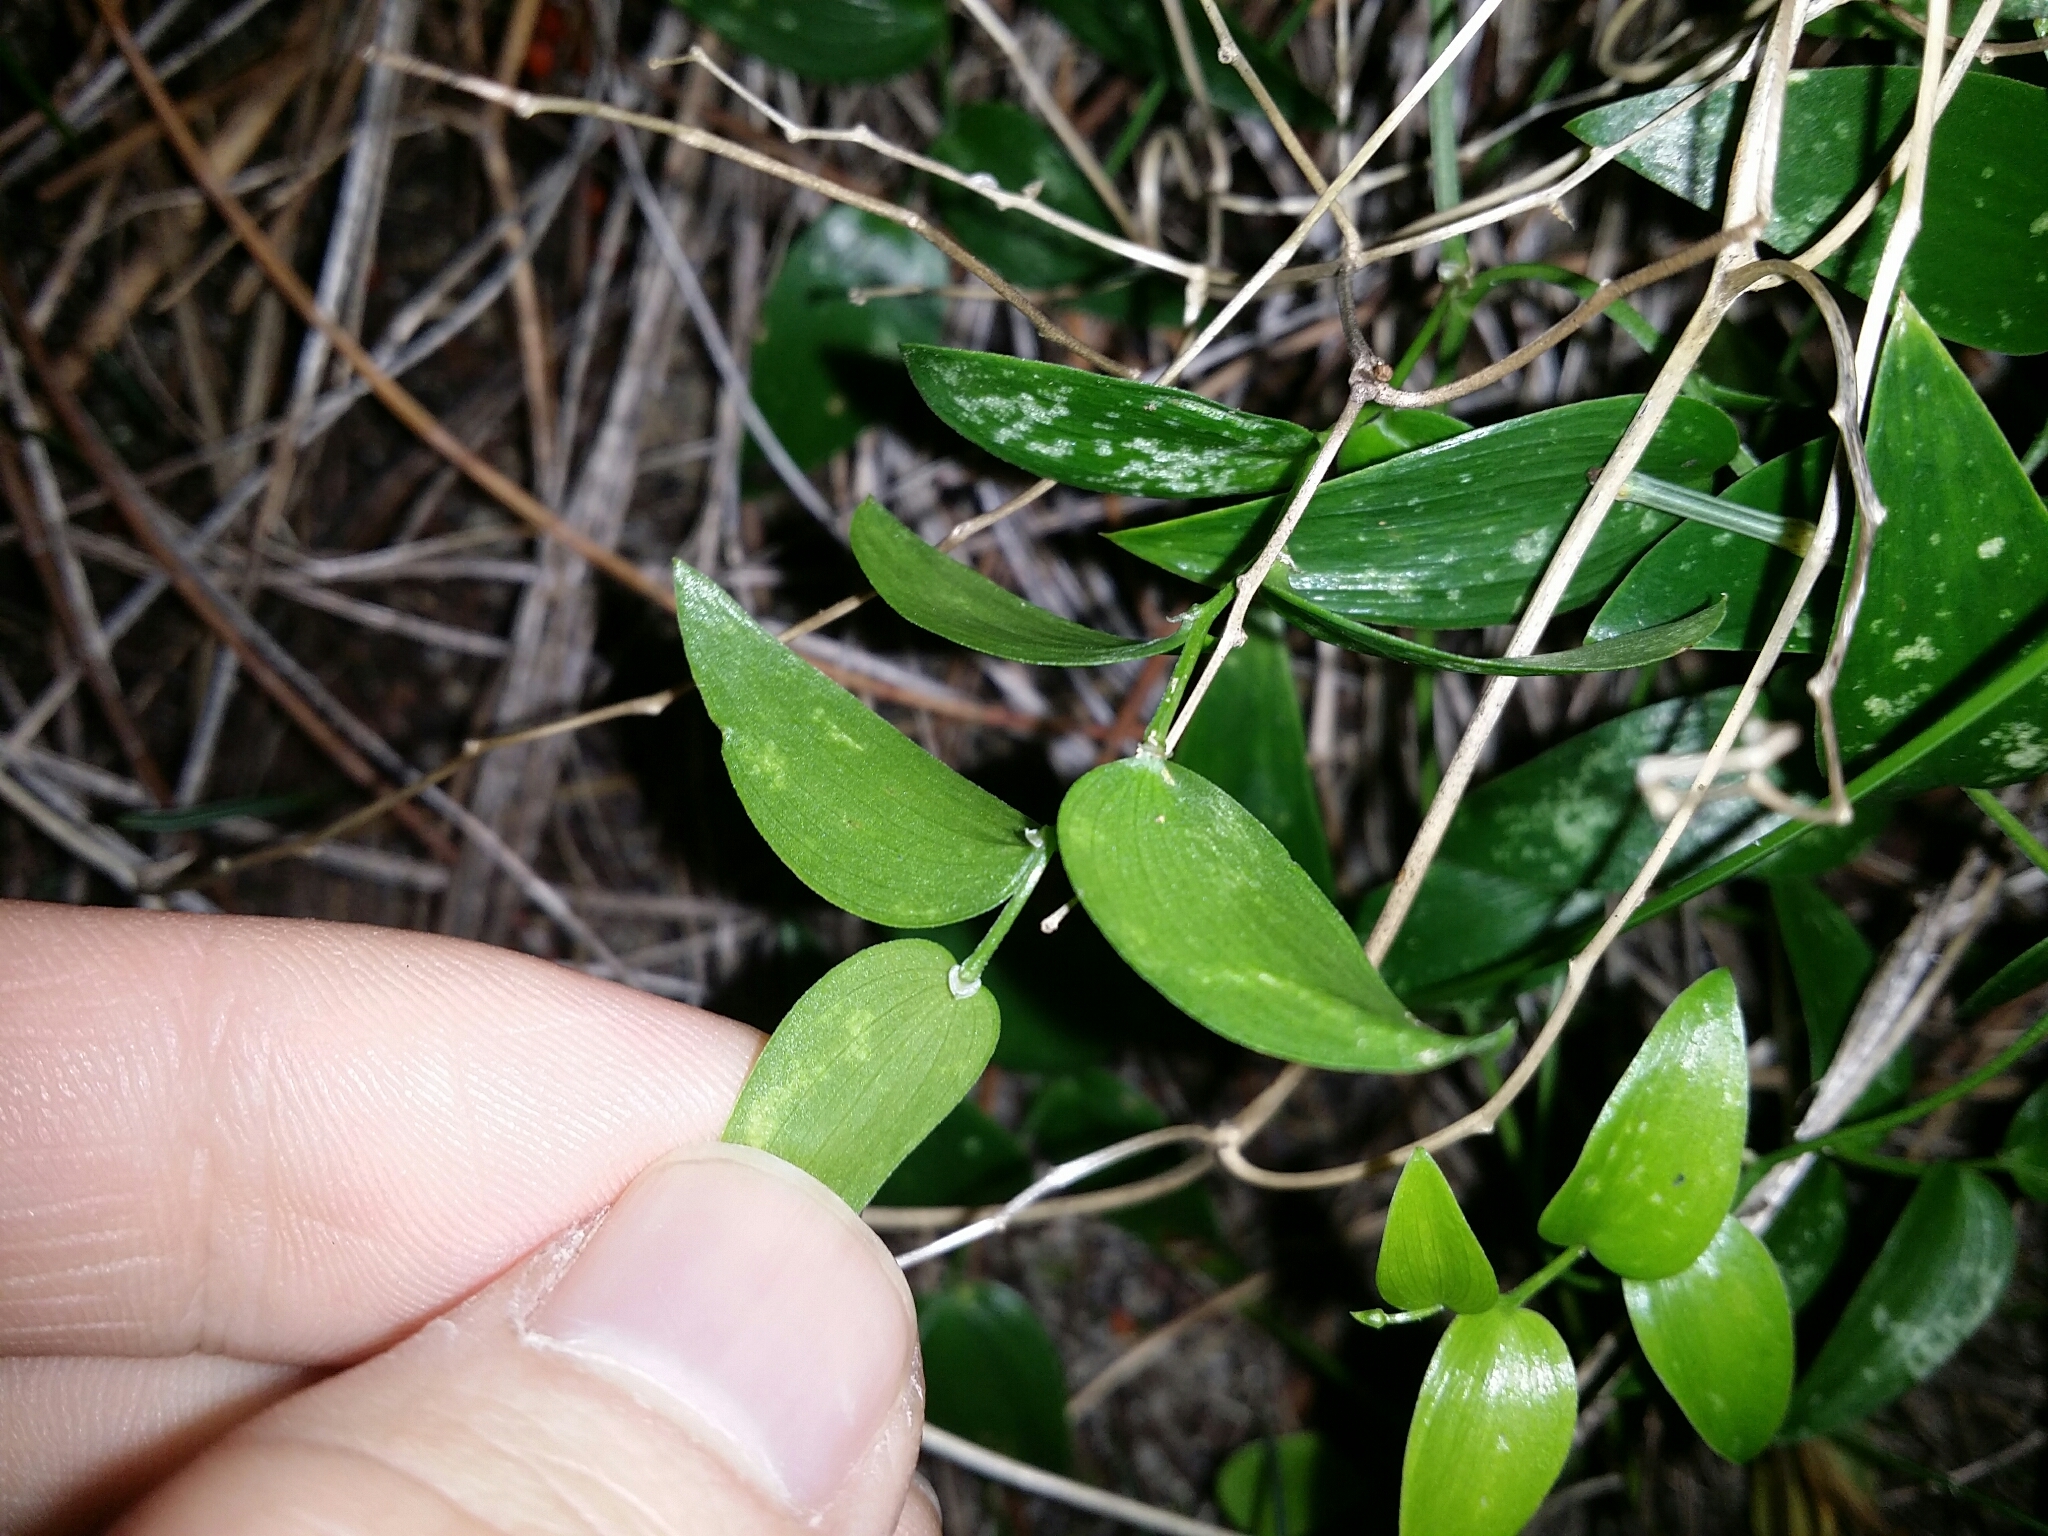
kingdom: Plantae
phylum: Tracheophyta
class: Liliopsida
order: Asparagales
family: Asparagaceae
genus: Asparagus
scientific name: Asparagus asparagoides
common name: African asparagus fern
